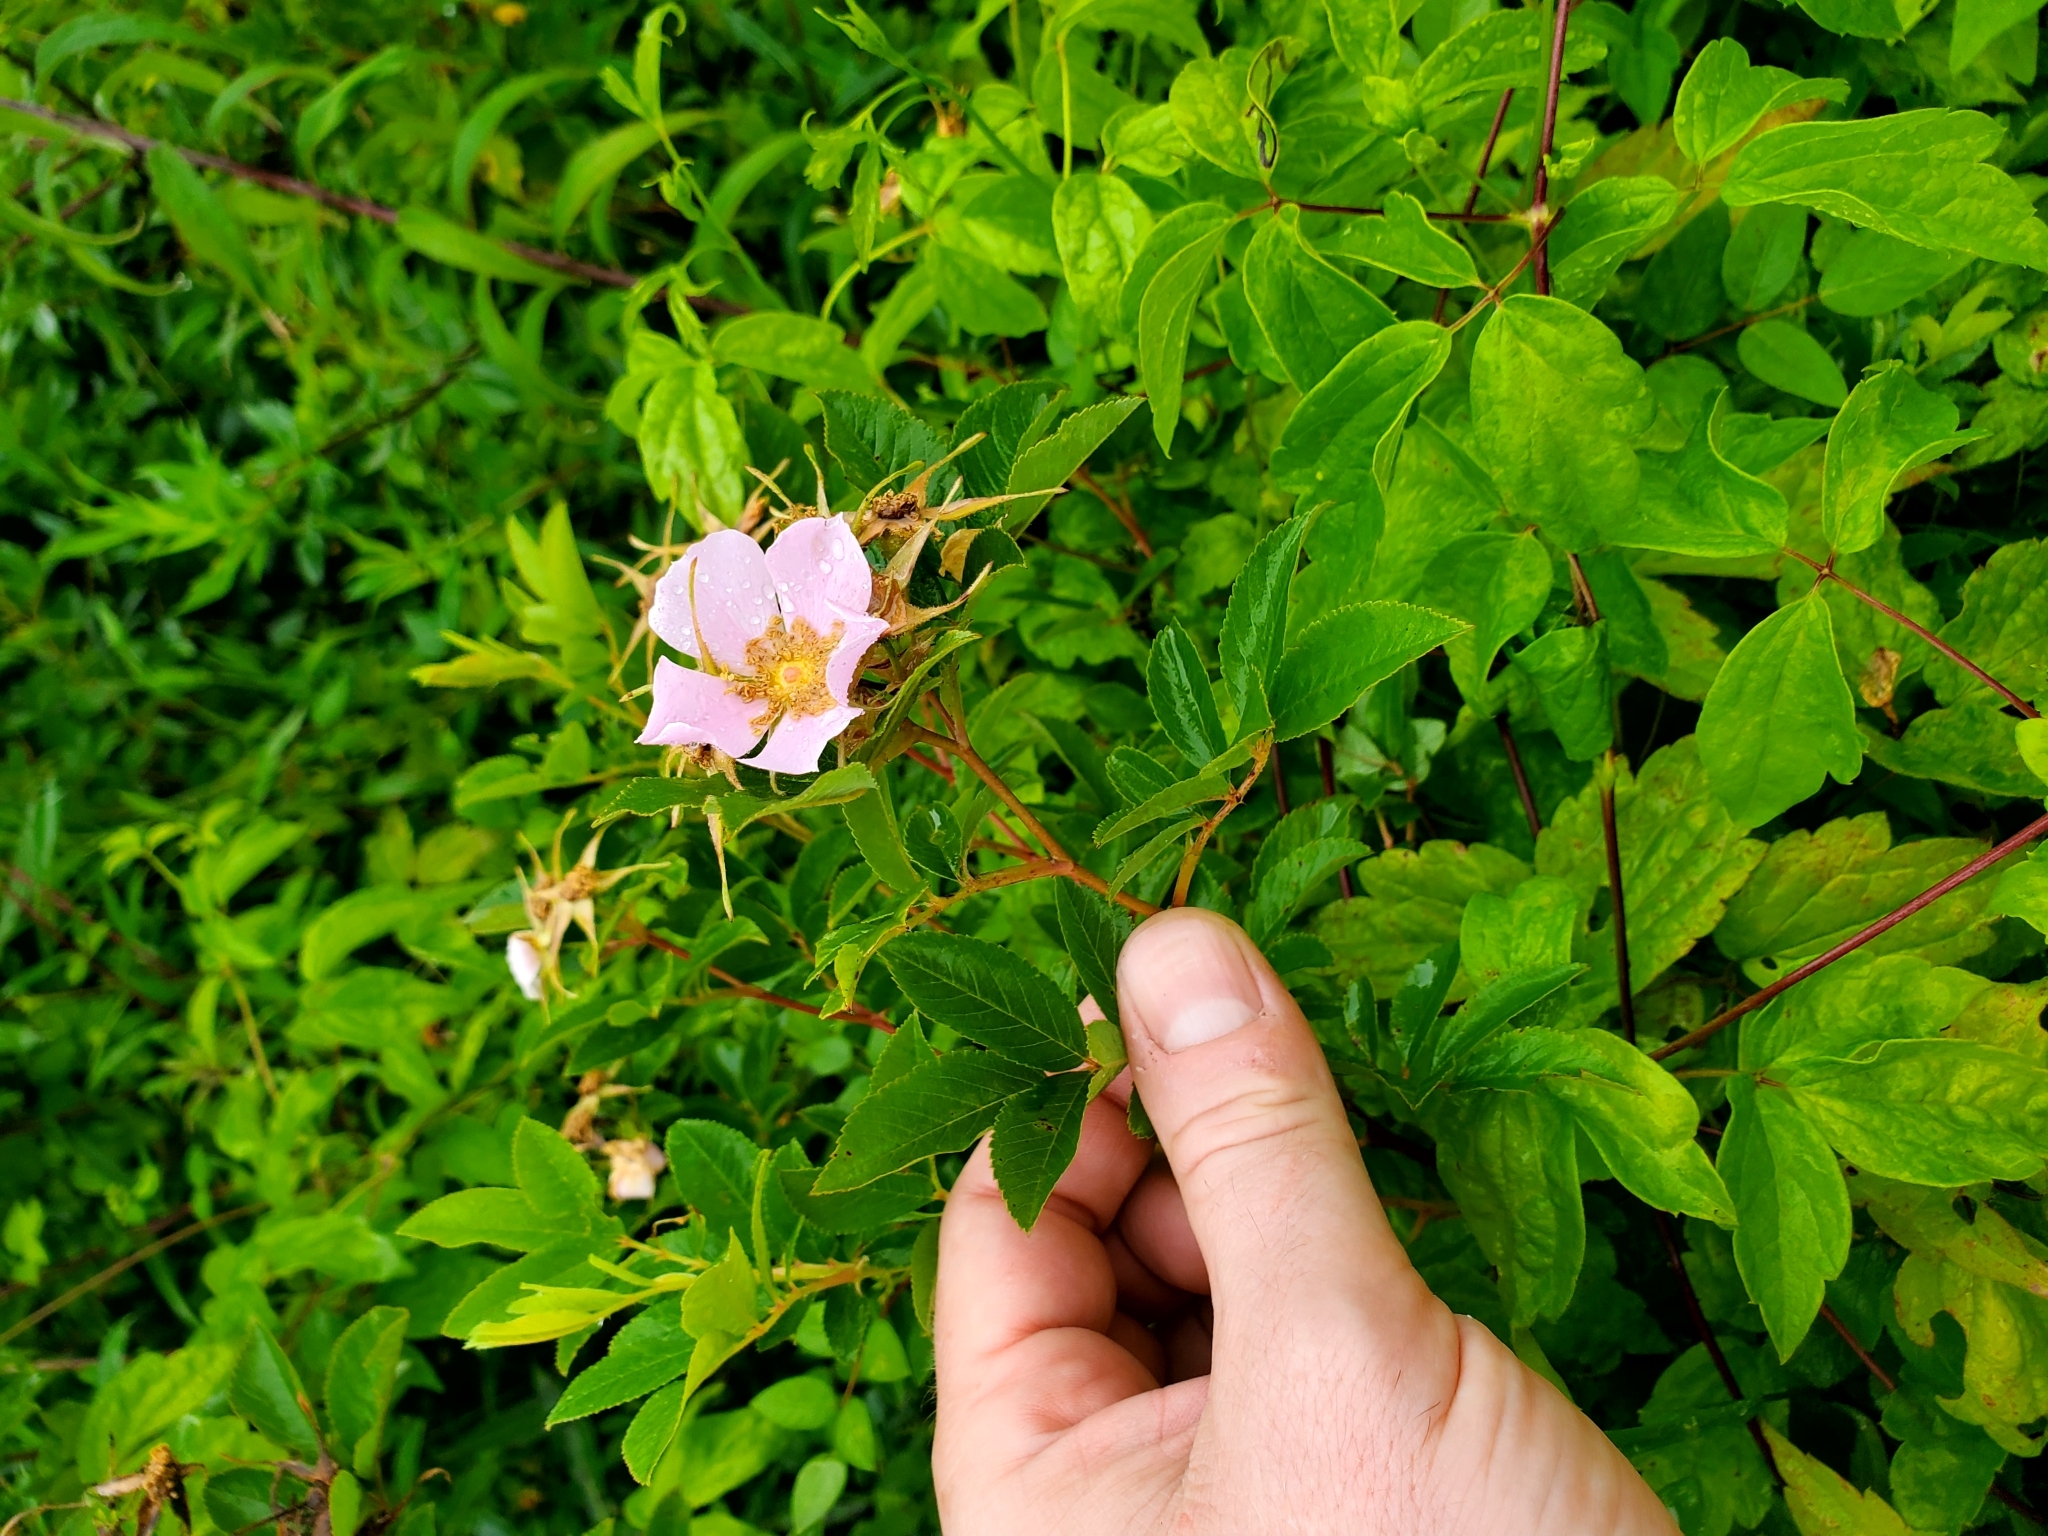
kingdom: Plantae
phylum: Tracheophyta
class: Magnoliopsida
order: Rosales
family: Rosaceae
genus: Rosa
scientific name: Rosa palustris
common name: Swamp rose
